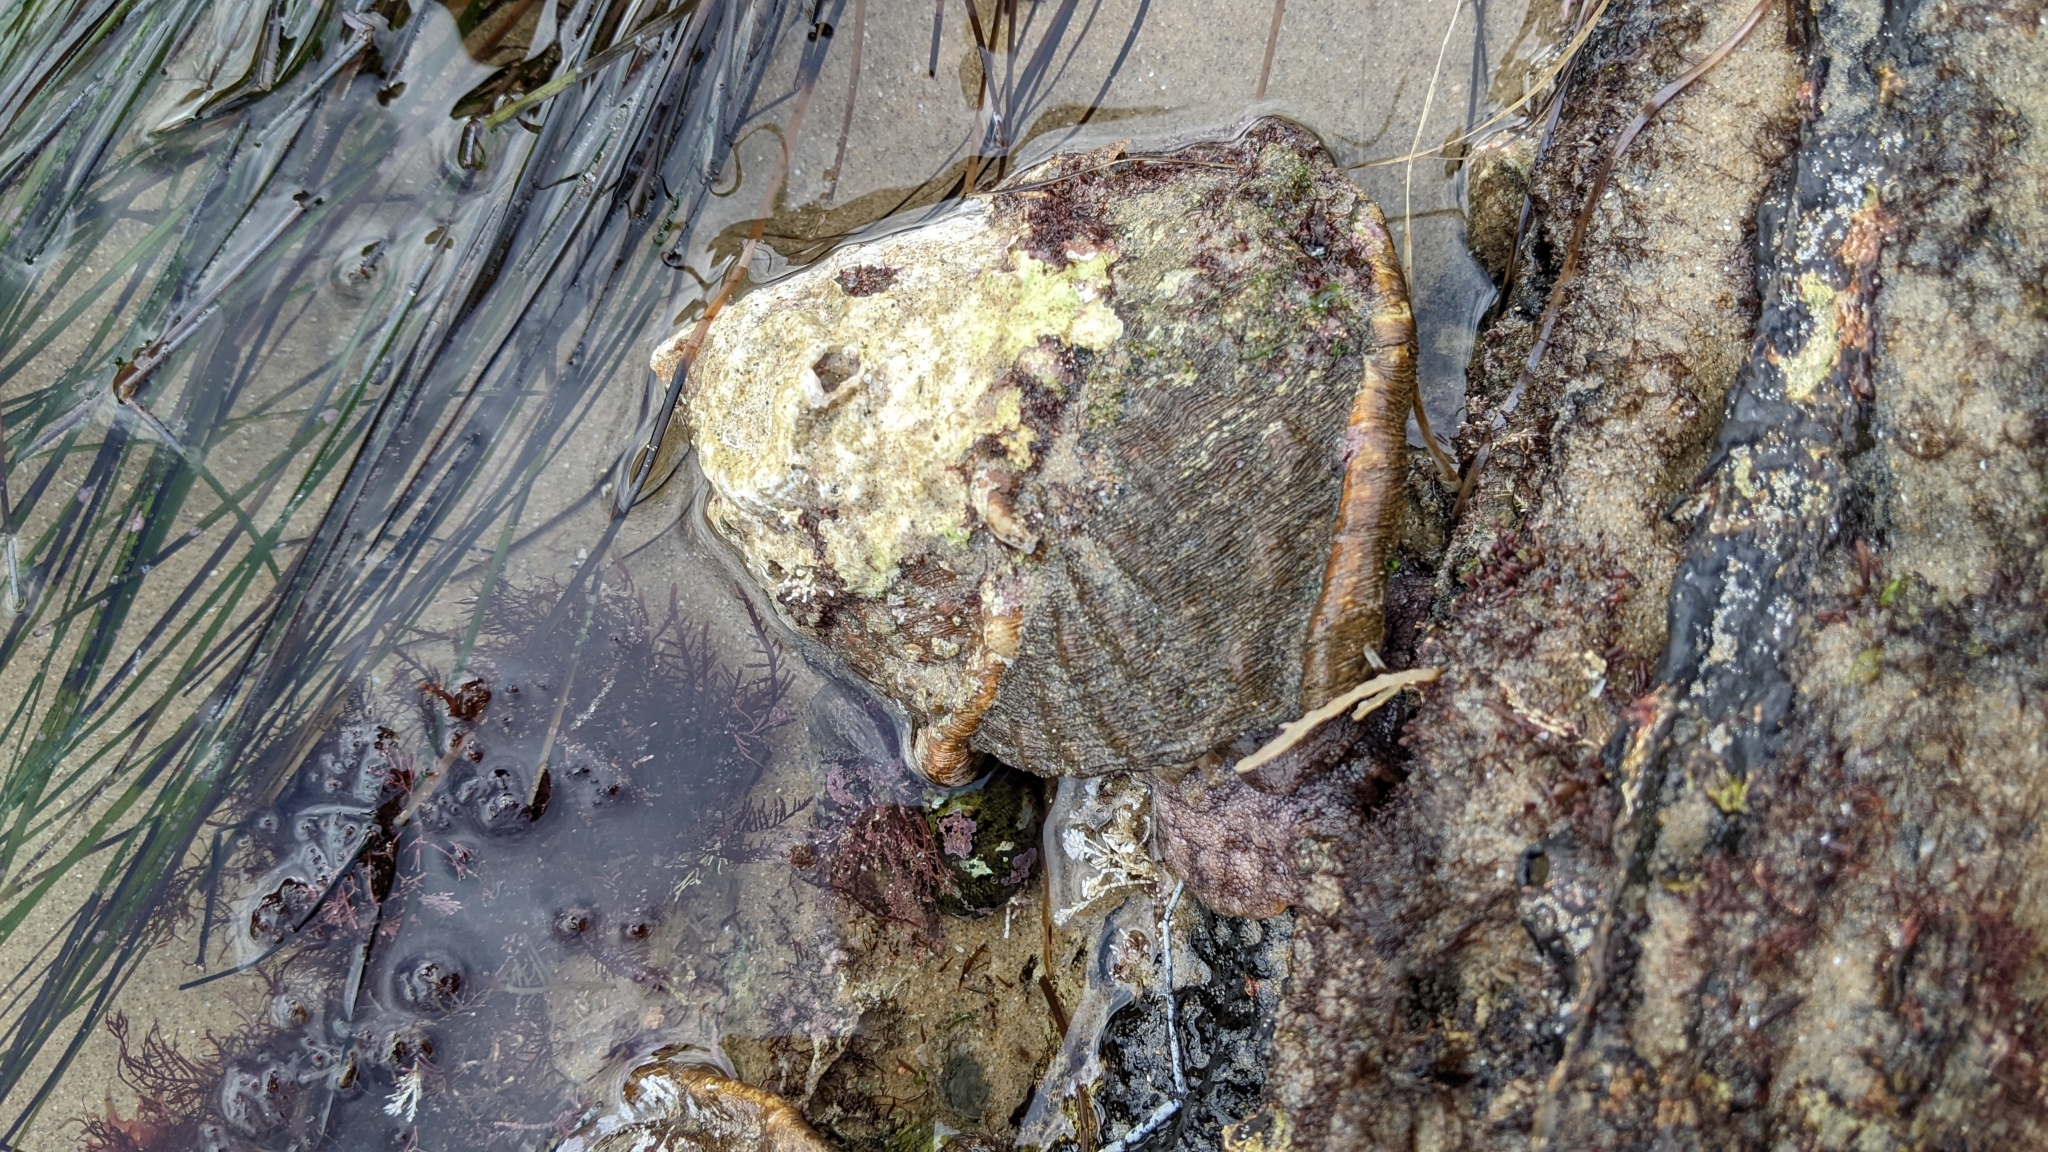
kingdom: Animalia
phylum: Mollusca
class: Gastropoda
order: Trochida
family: Turbinidae
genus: Megastraea
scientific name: Megastraea undosa
